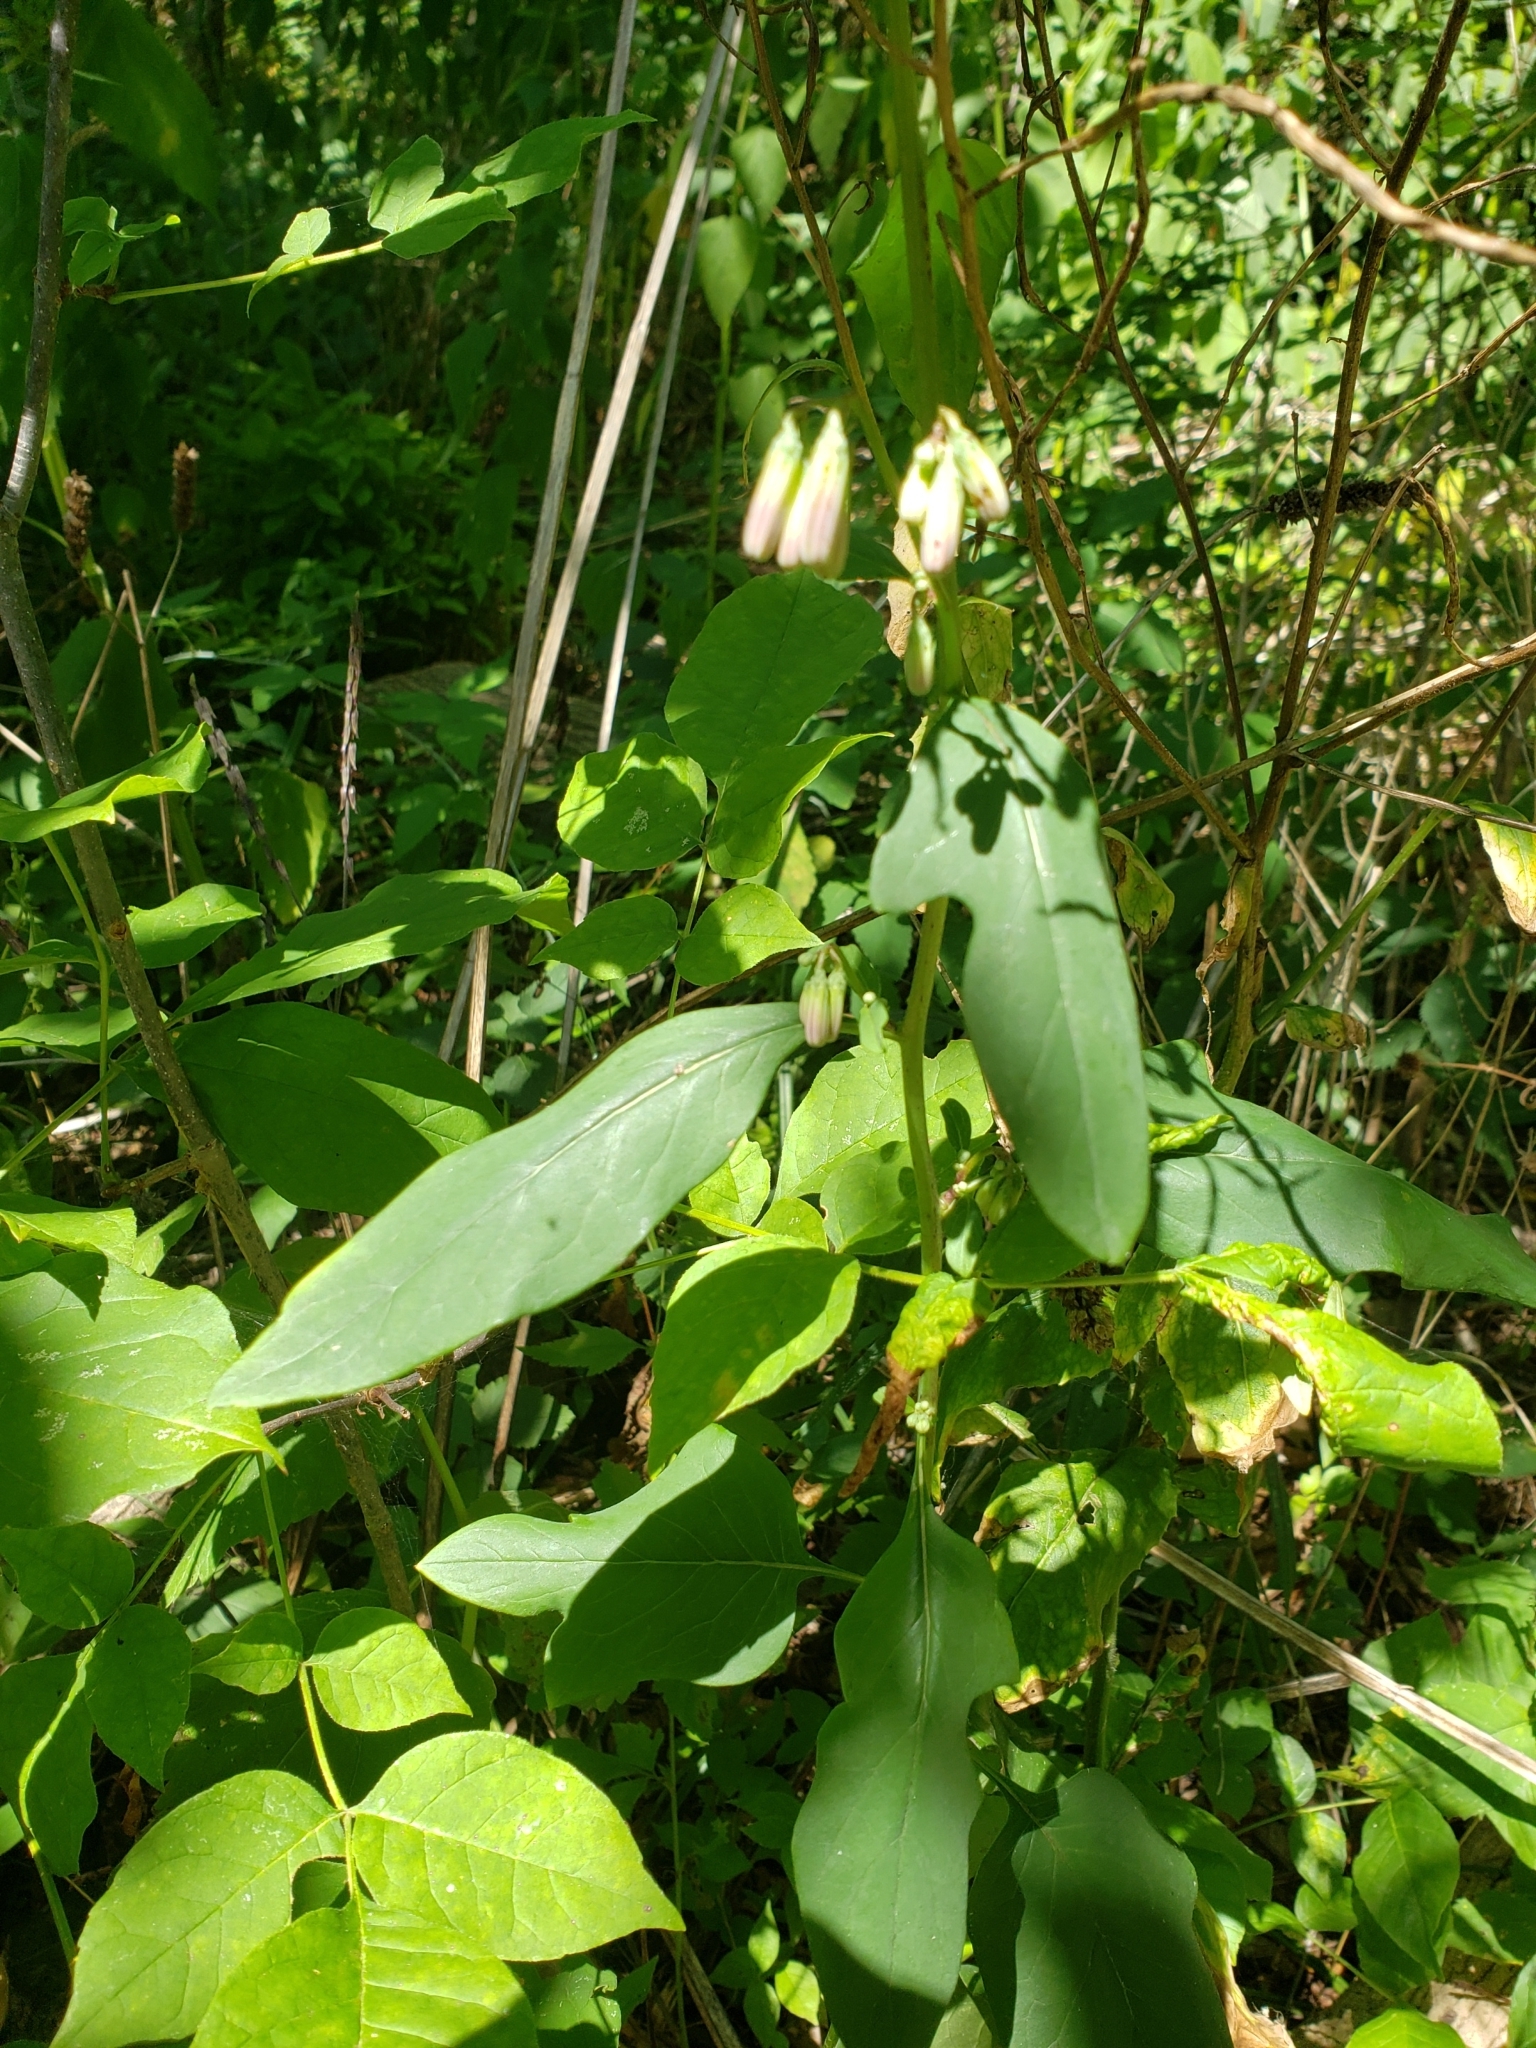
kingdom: Plantae
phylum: Tracheophyta
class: Magnoliopsida
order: Asterales
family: Asteraceae
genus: Nabalus
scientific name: Nabalus albus
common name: White rattlesnakeroot
